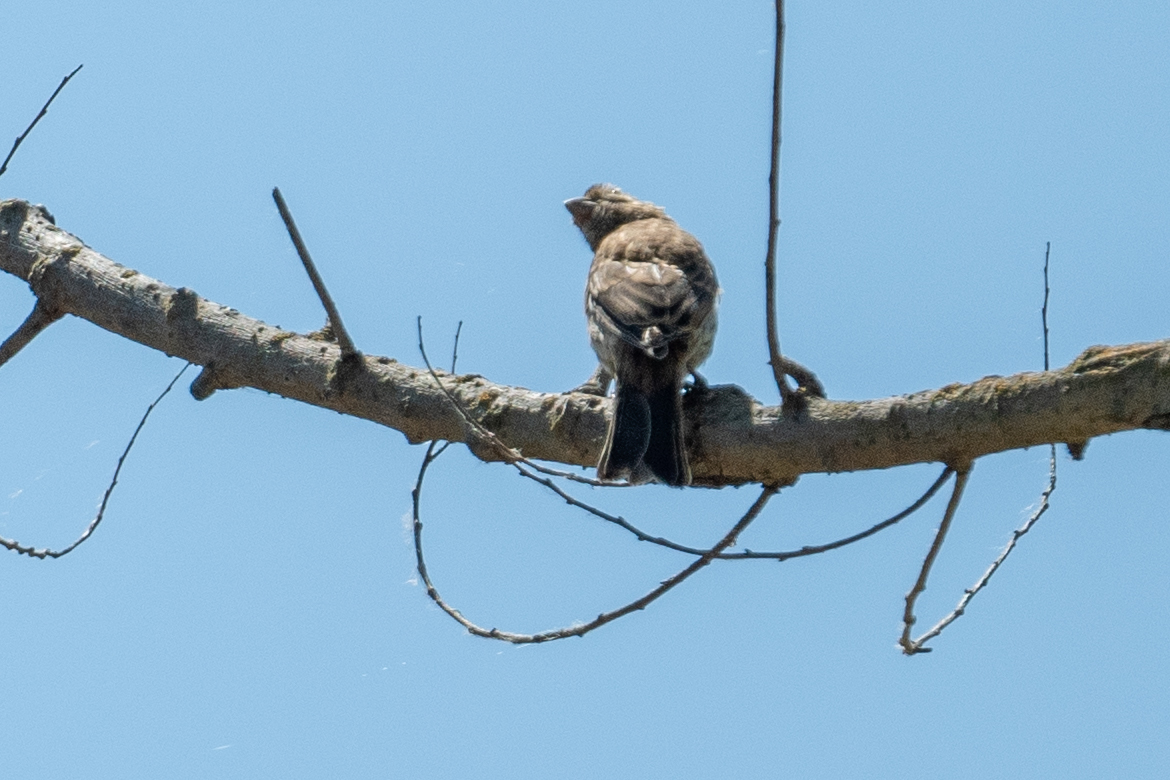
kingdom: Animalia
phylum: Chordata
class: Aves
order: Passeriformes
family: Fringillidae
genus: Haemorhous
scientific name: Haemorhous mexicanus
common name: House finch
